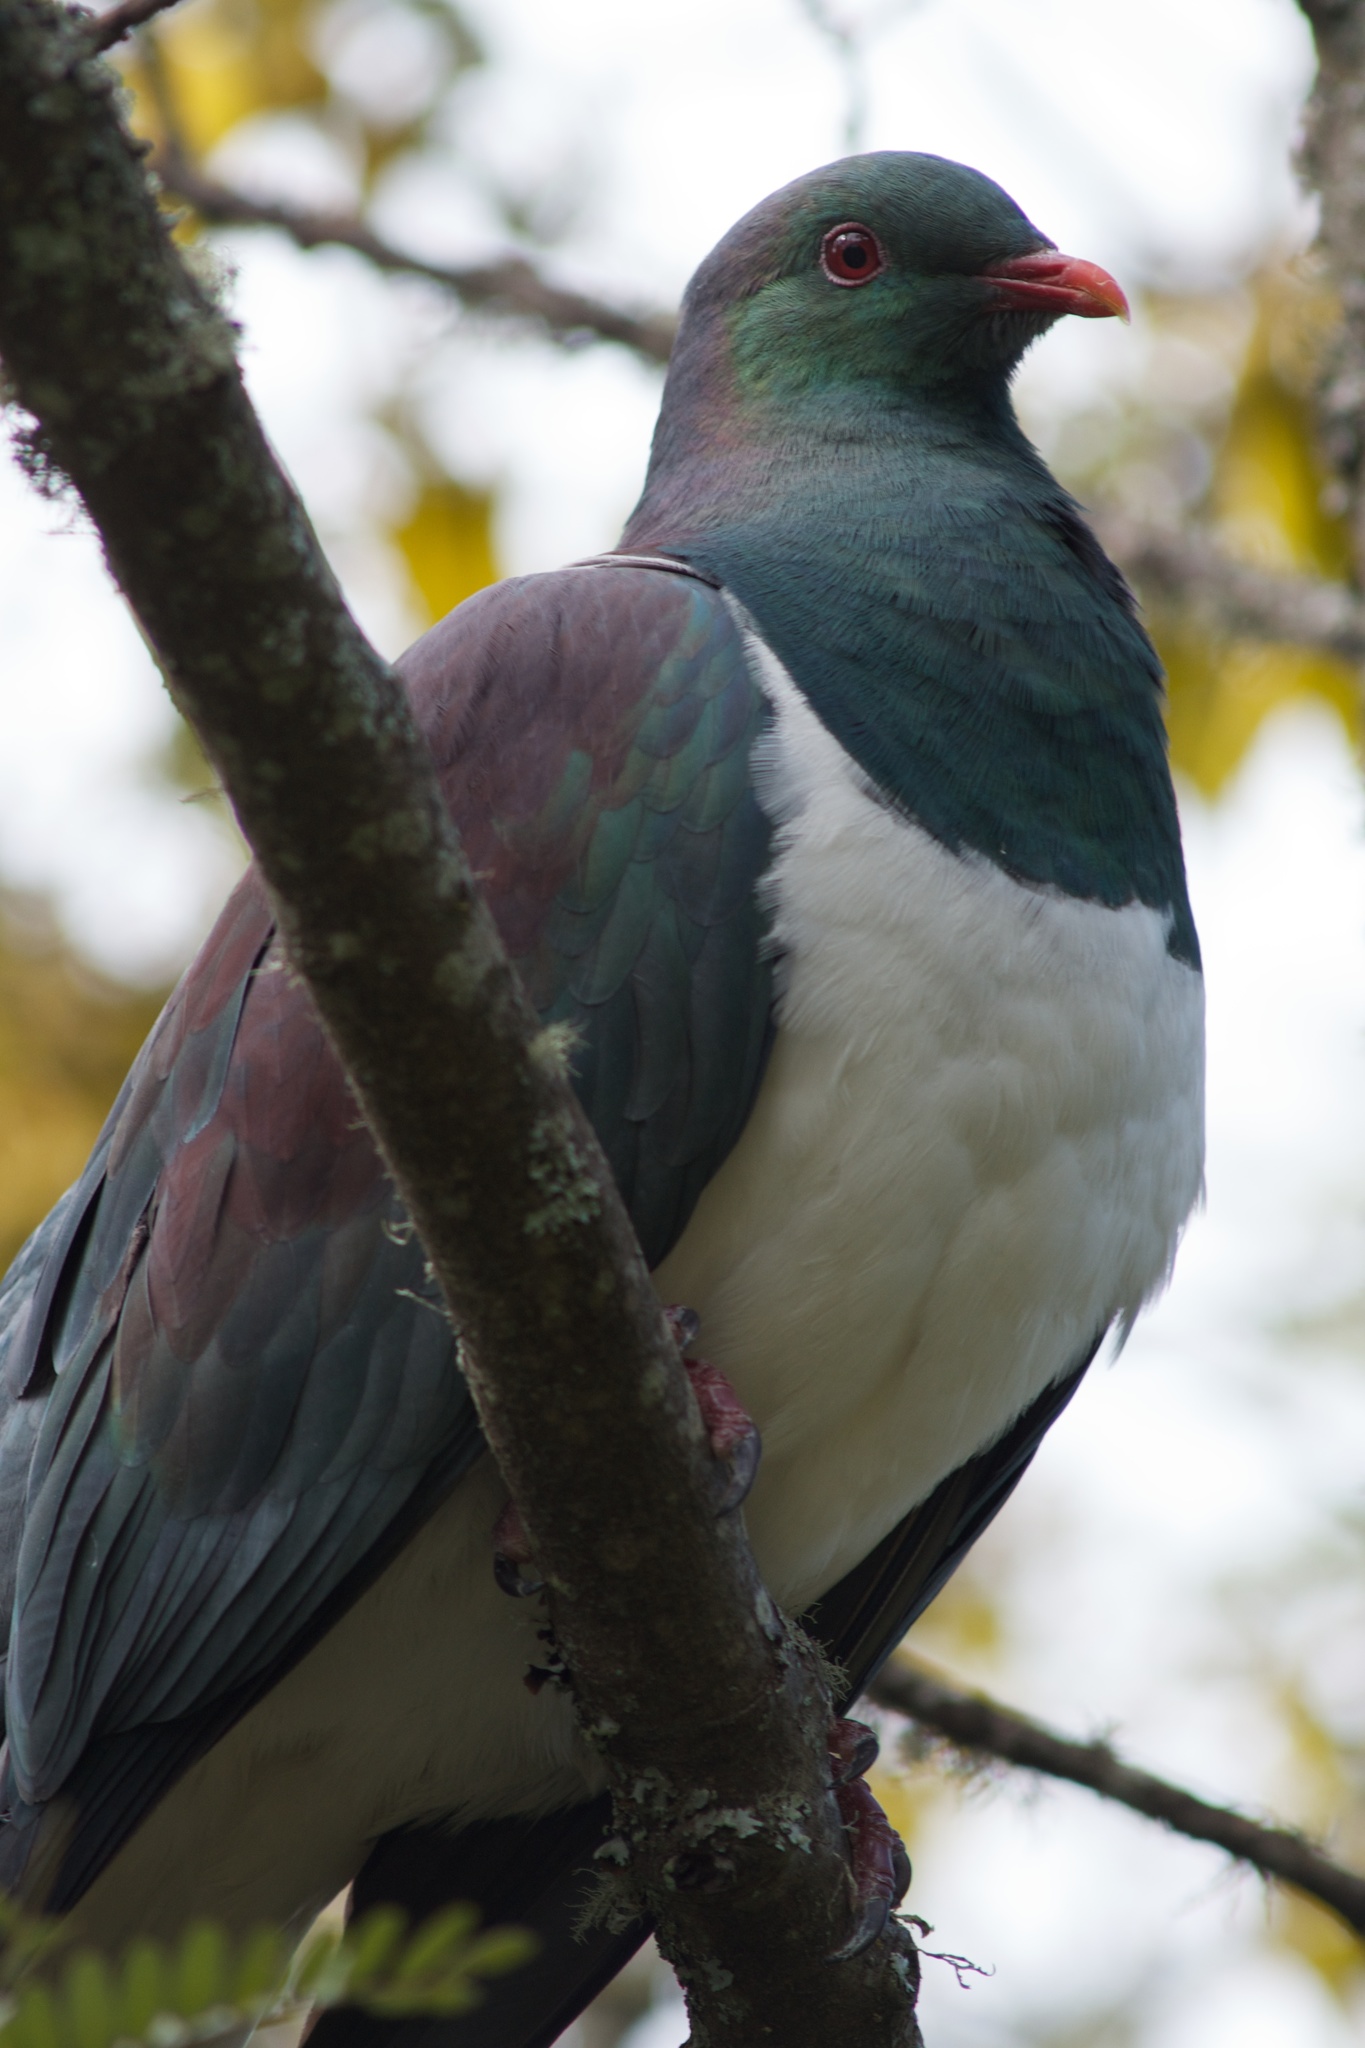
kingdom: Animalia
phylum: Chordata
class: Aves
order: Columbiformes
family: Columbidae
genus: Hemiphaga
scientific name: Hemiphaga novaeseelandiae
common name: New zealand pigeon
